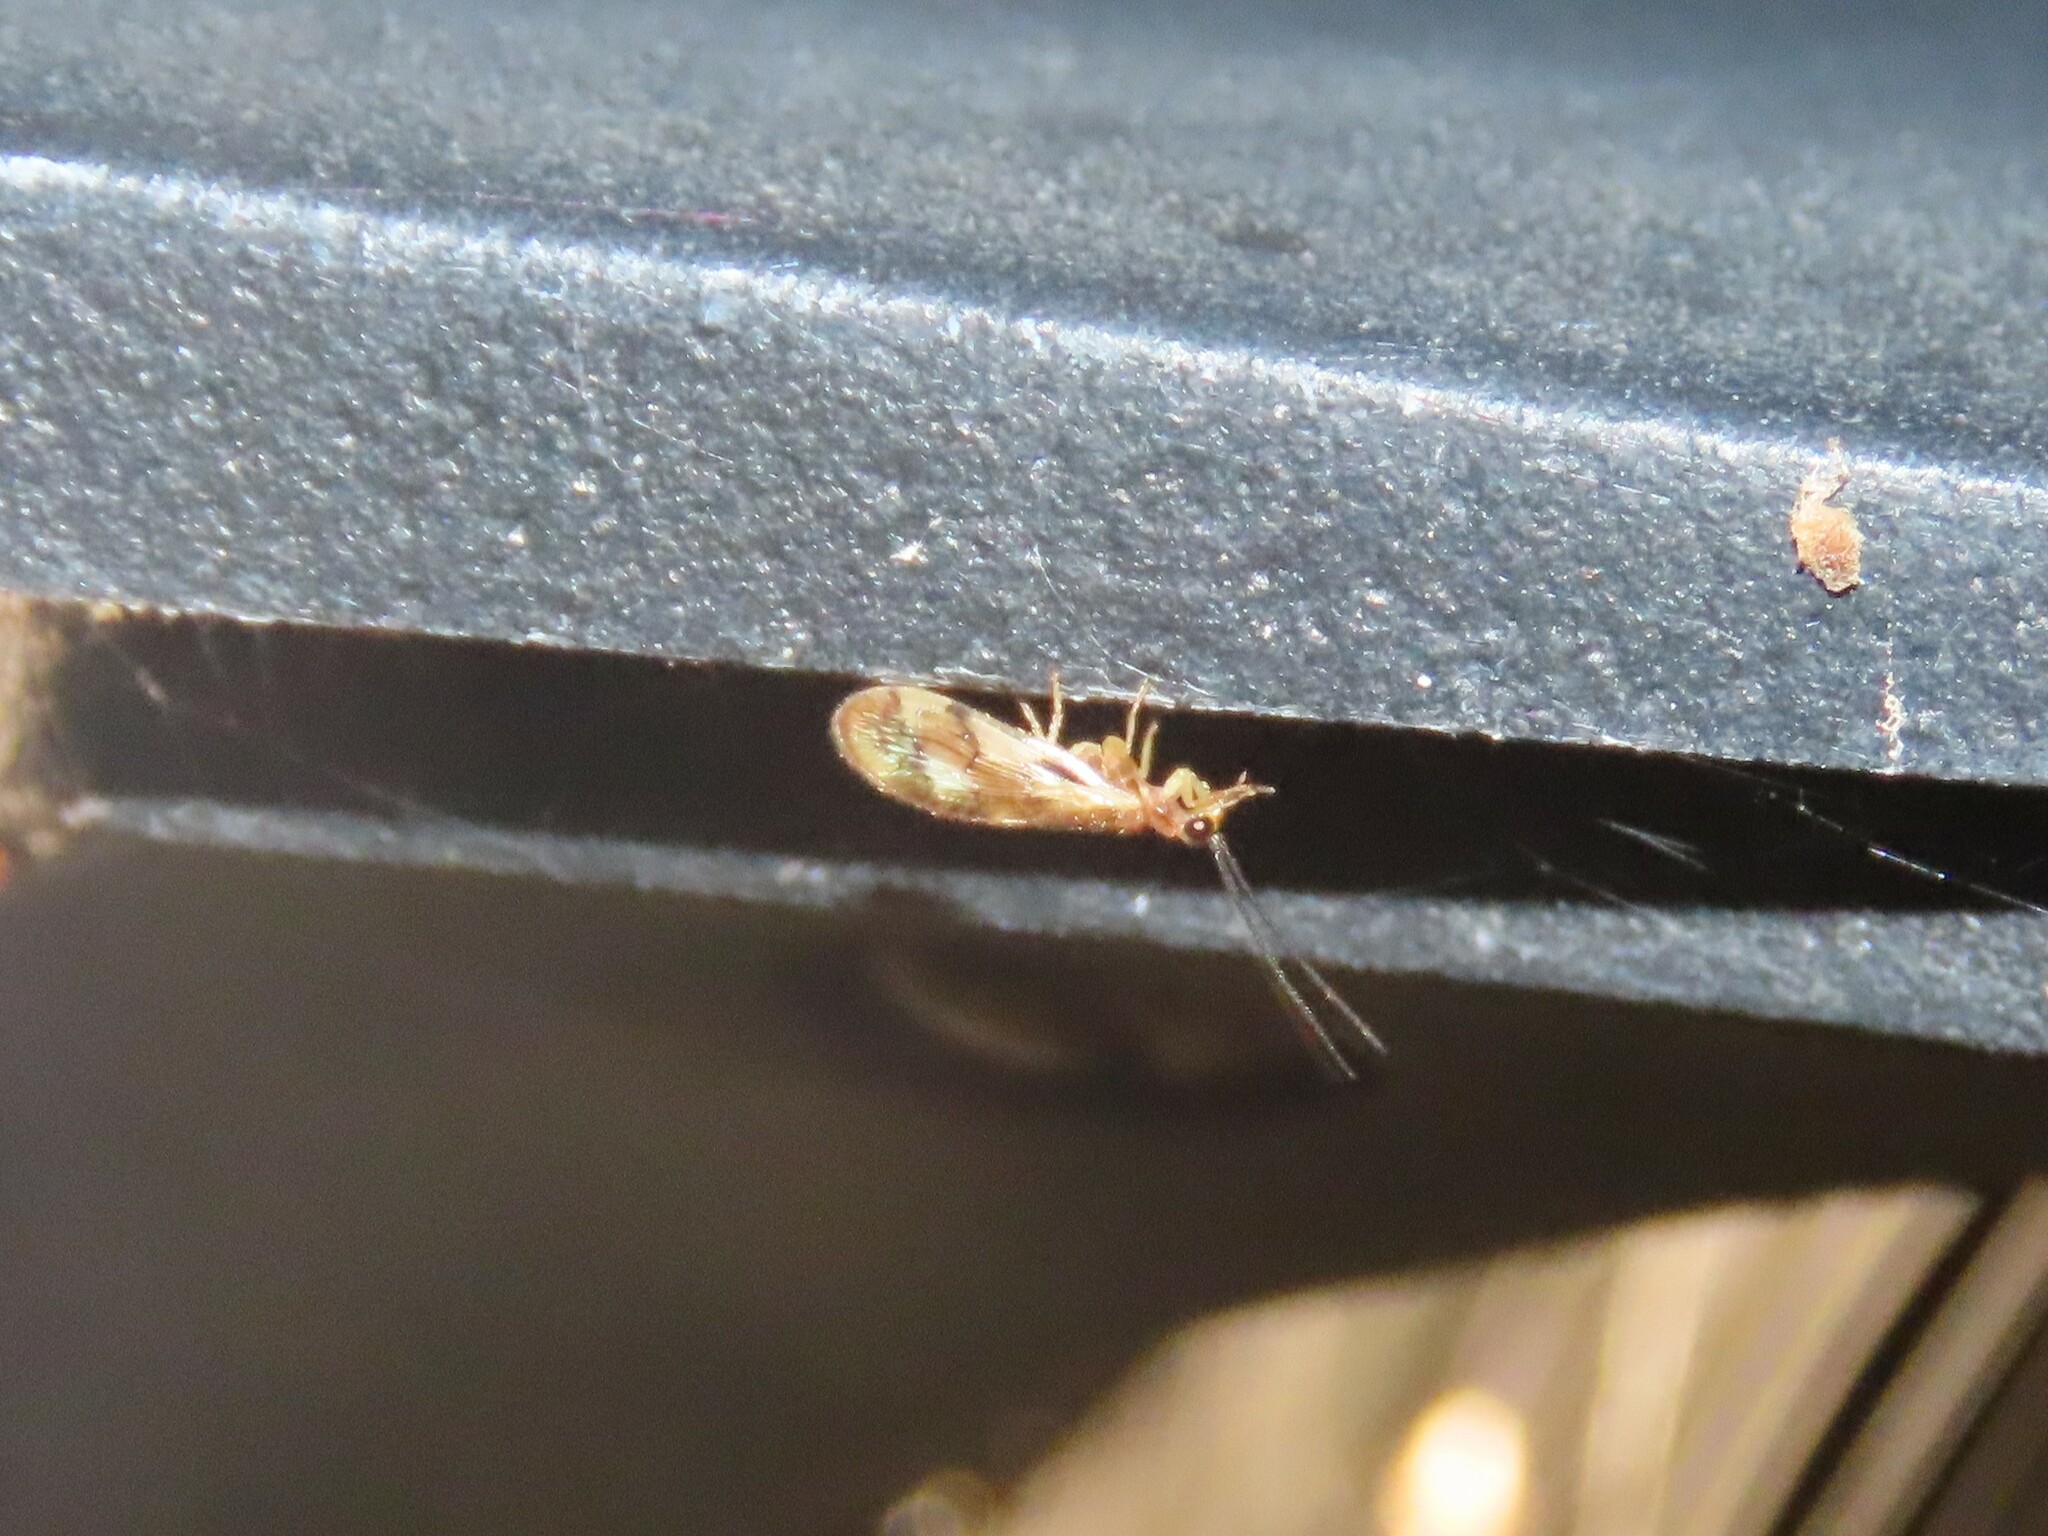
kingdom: Animalia
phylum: Arthropoda
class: Insecta
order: Neuroptera
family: Sisyridae
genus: Climacia
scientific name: Climacia areolaris
